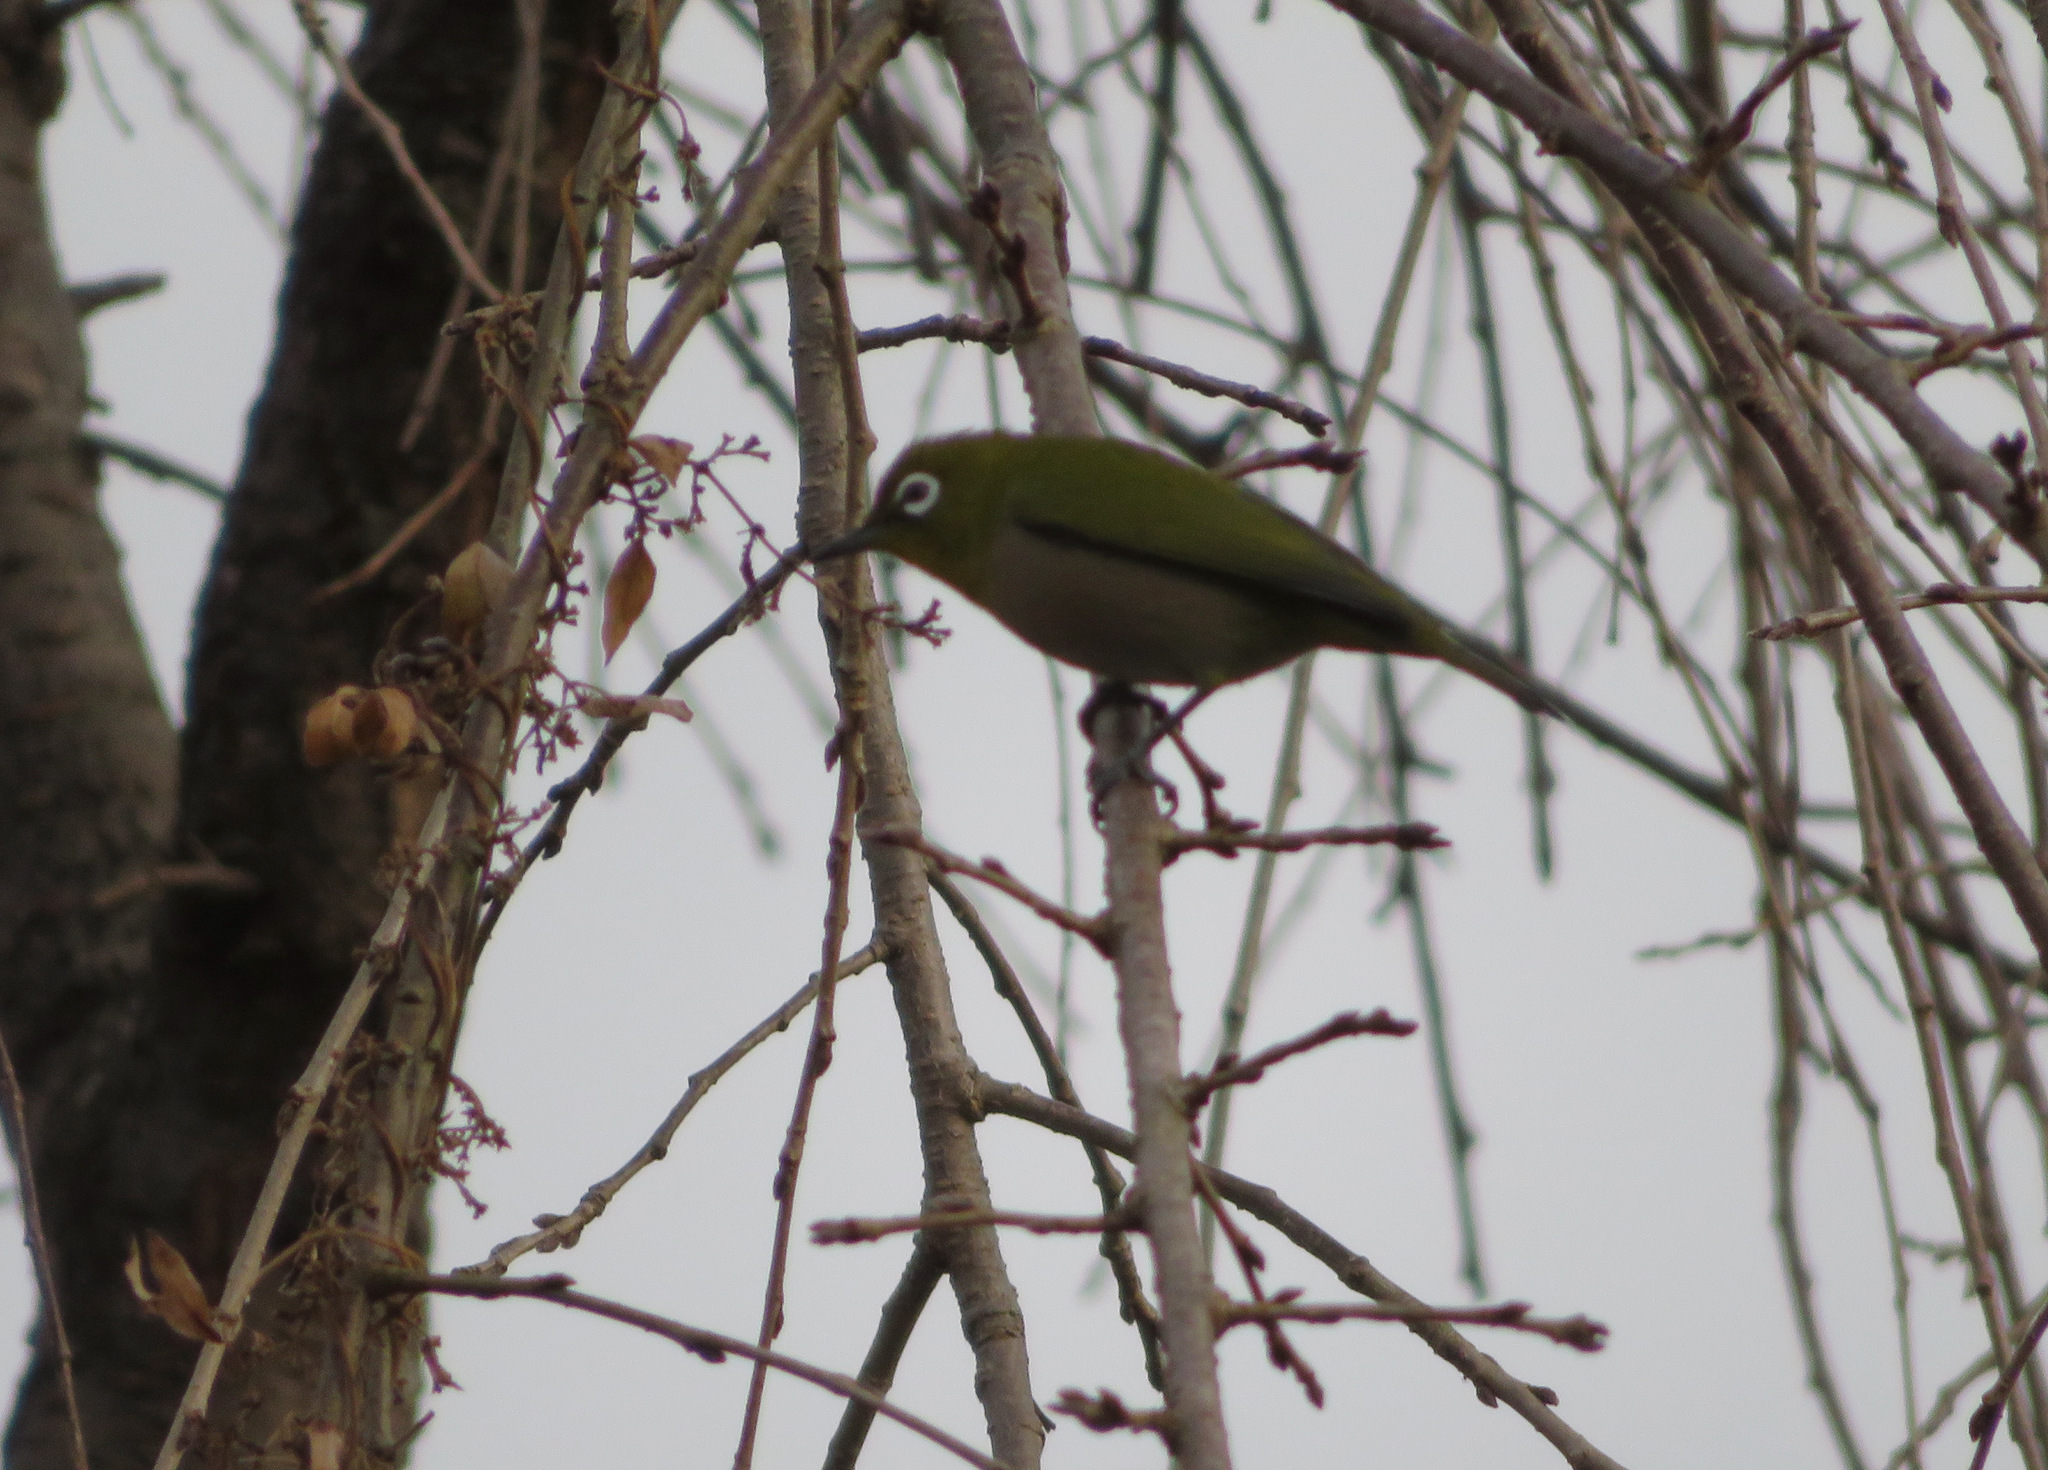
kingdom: Animalia
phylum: Chordata
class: Aves
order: Passeriformes
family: Zosteropidae
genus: Zosterops
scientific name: Zosterops japonicus
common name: Japanese white-eye
